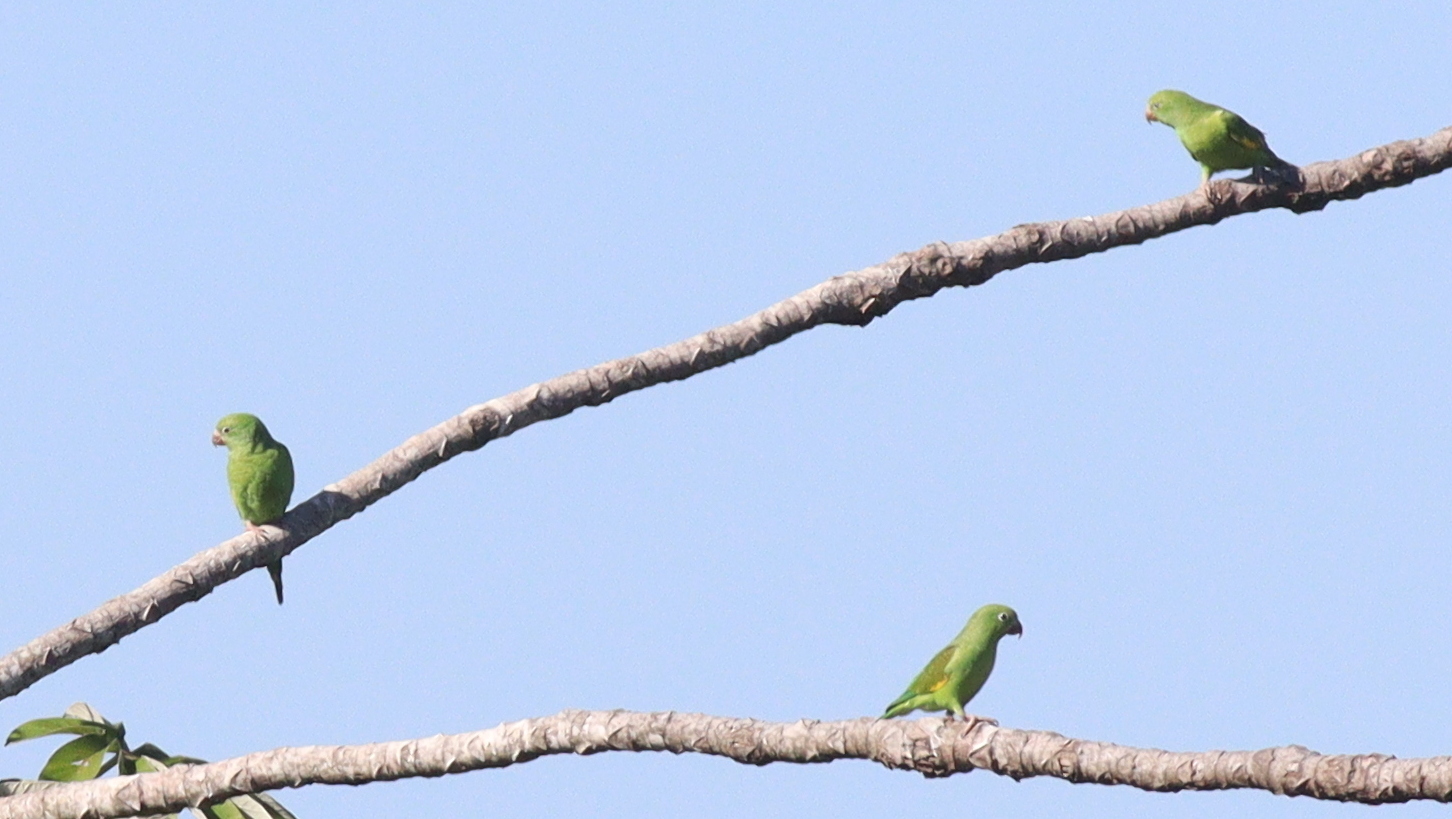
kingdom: Animalia
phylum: Chordata
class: Aves
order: Psittaciformes
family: Psittacidae
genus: Brotogeris
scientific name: Brotogeris chiriri
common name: Yellow-chevroned parakeet
